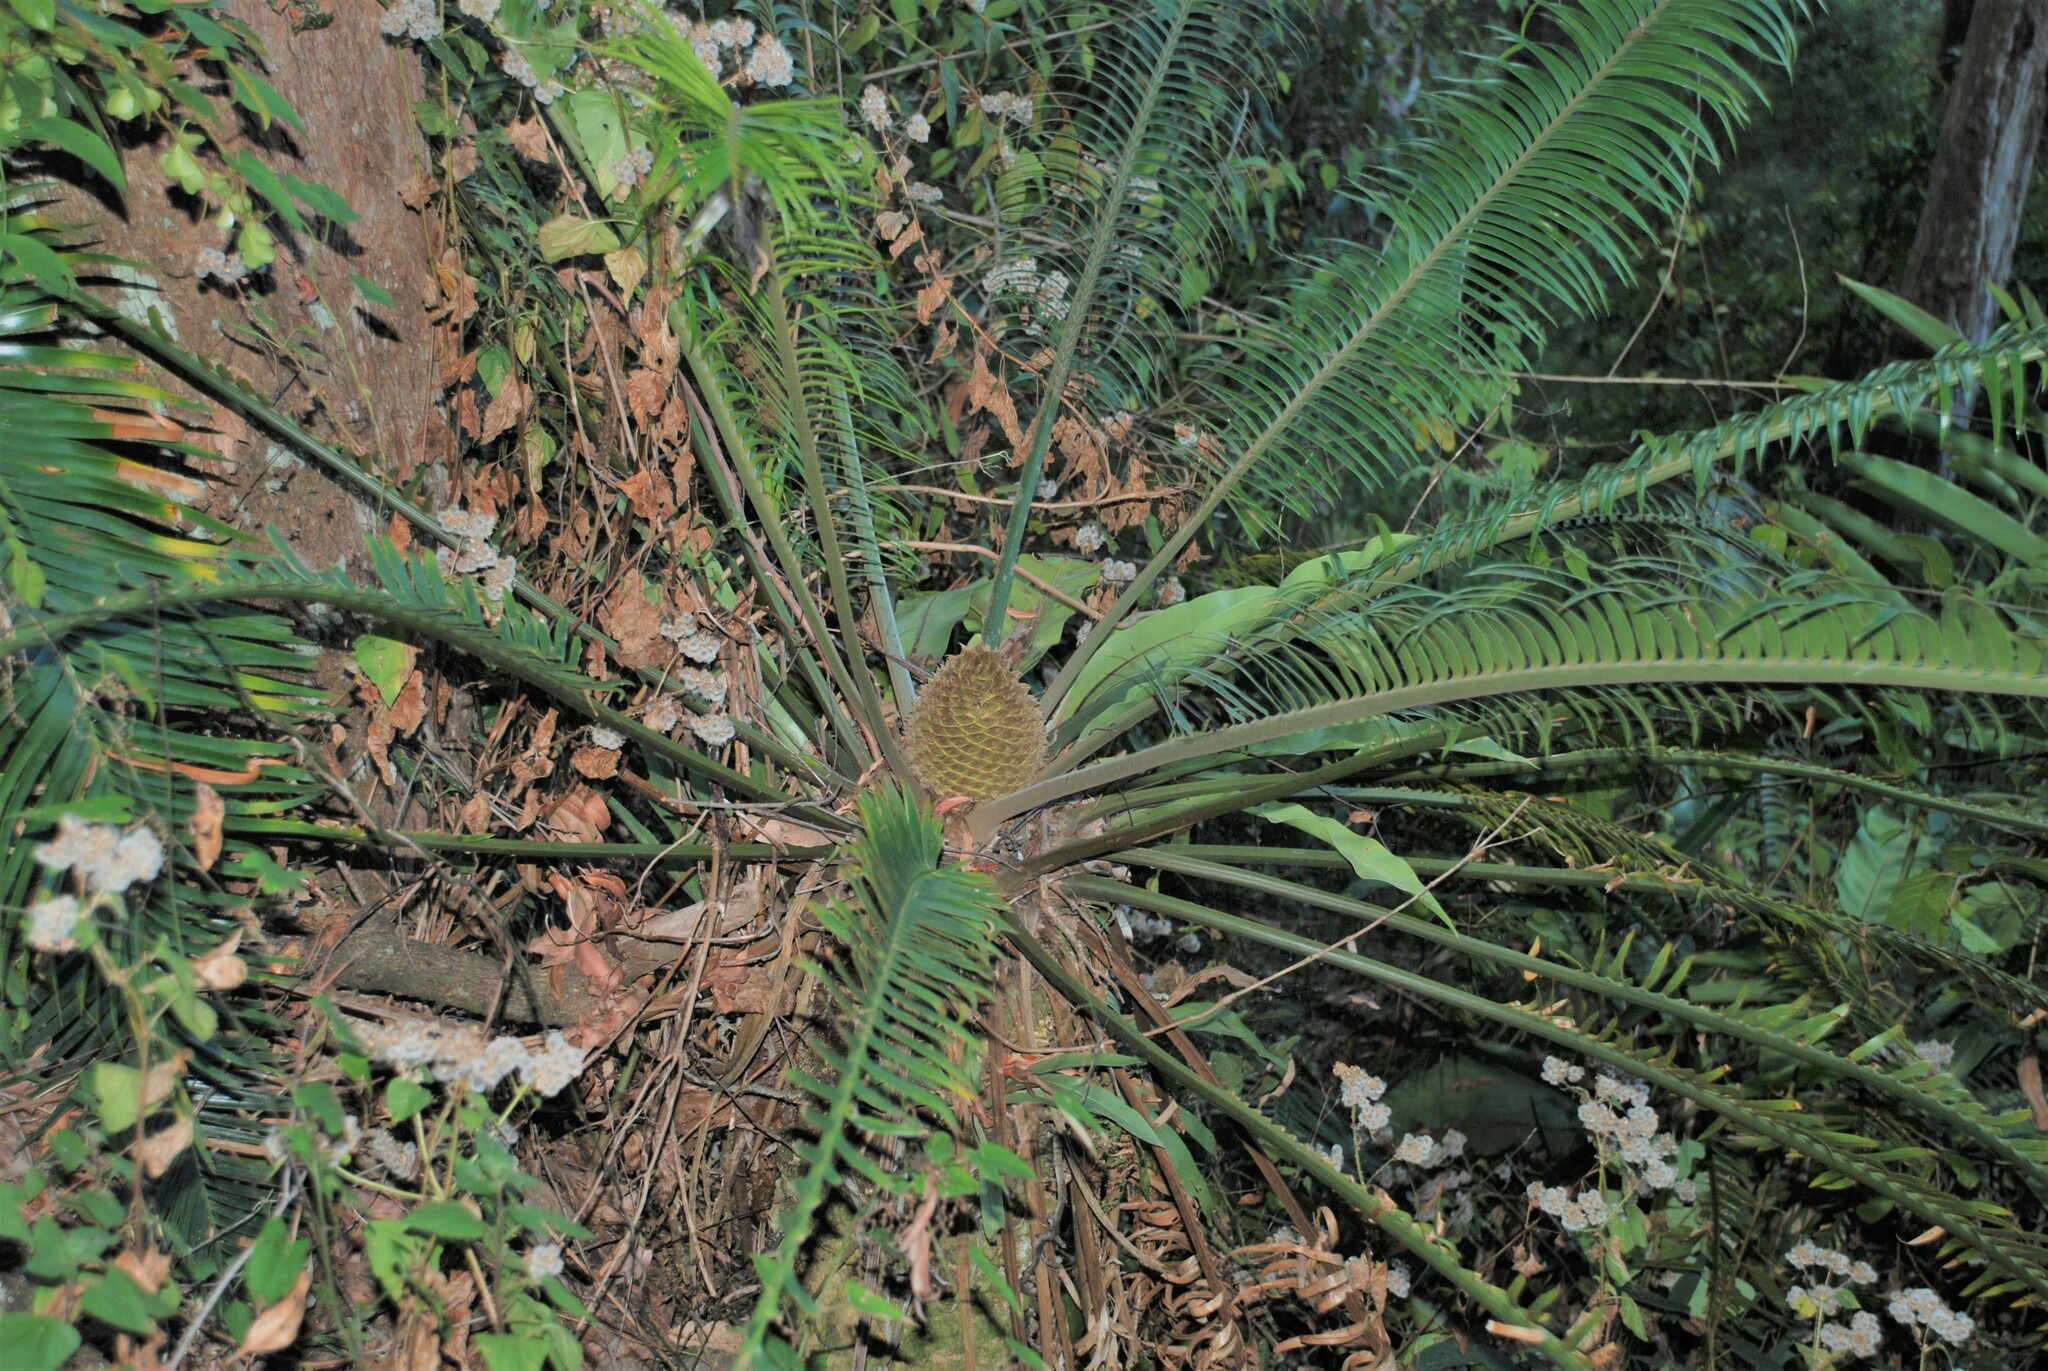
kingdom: Plantae
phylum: Tracheophyta
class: Cycadopsida
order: Cycadales
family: Zamiaceae
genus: Lepidozamia
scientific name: Lepidozamia peroffskyana
